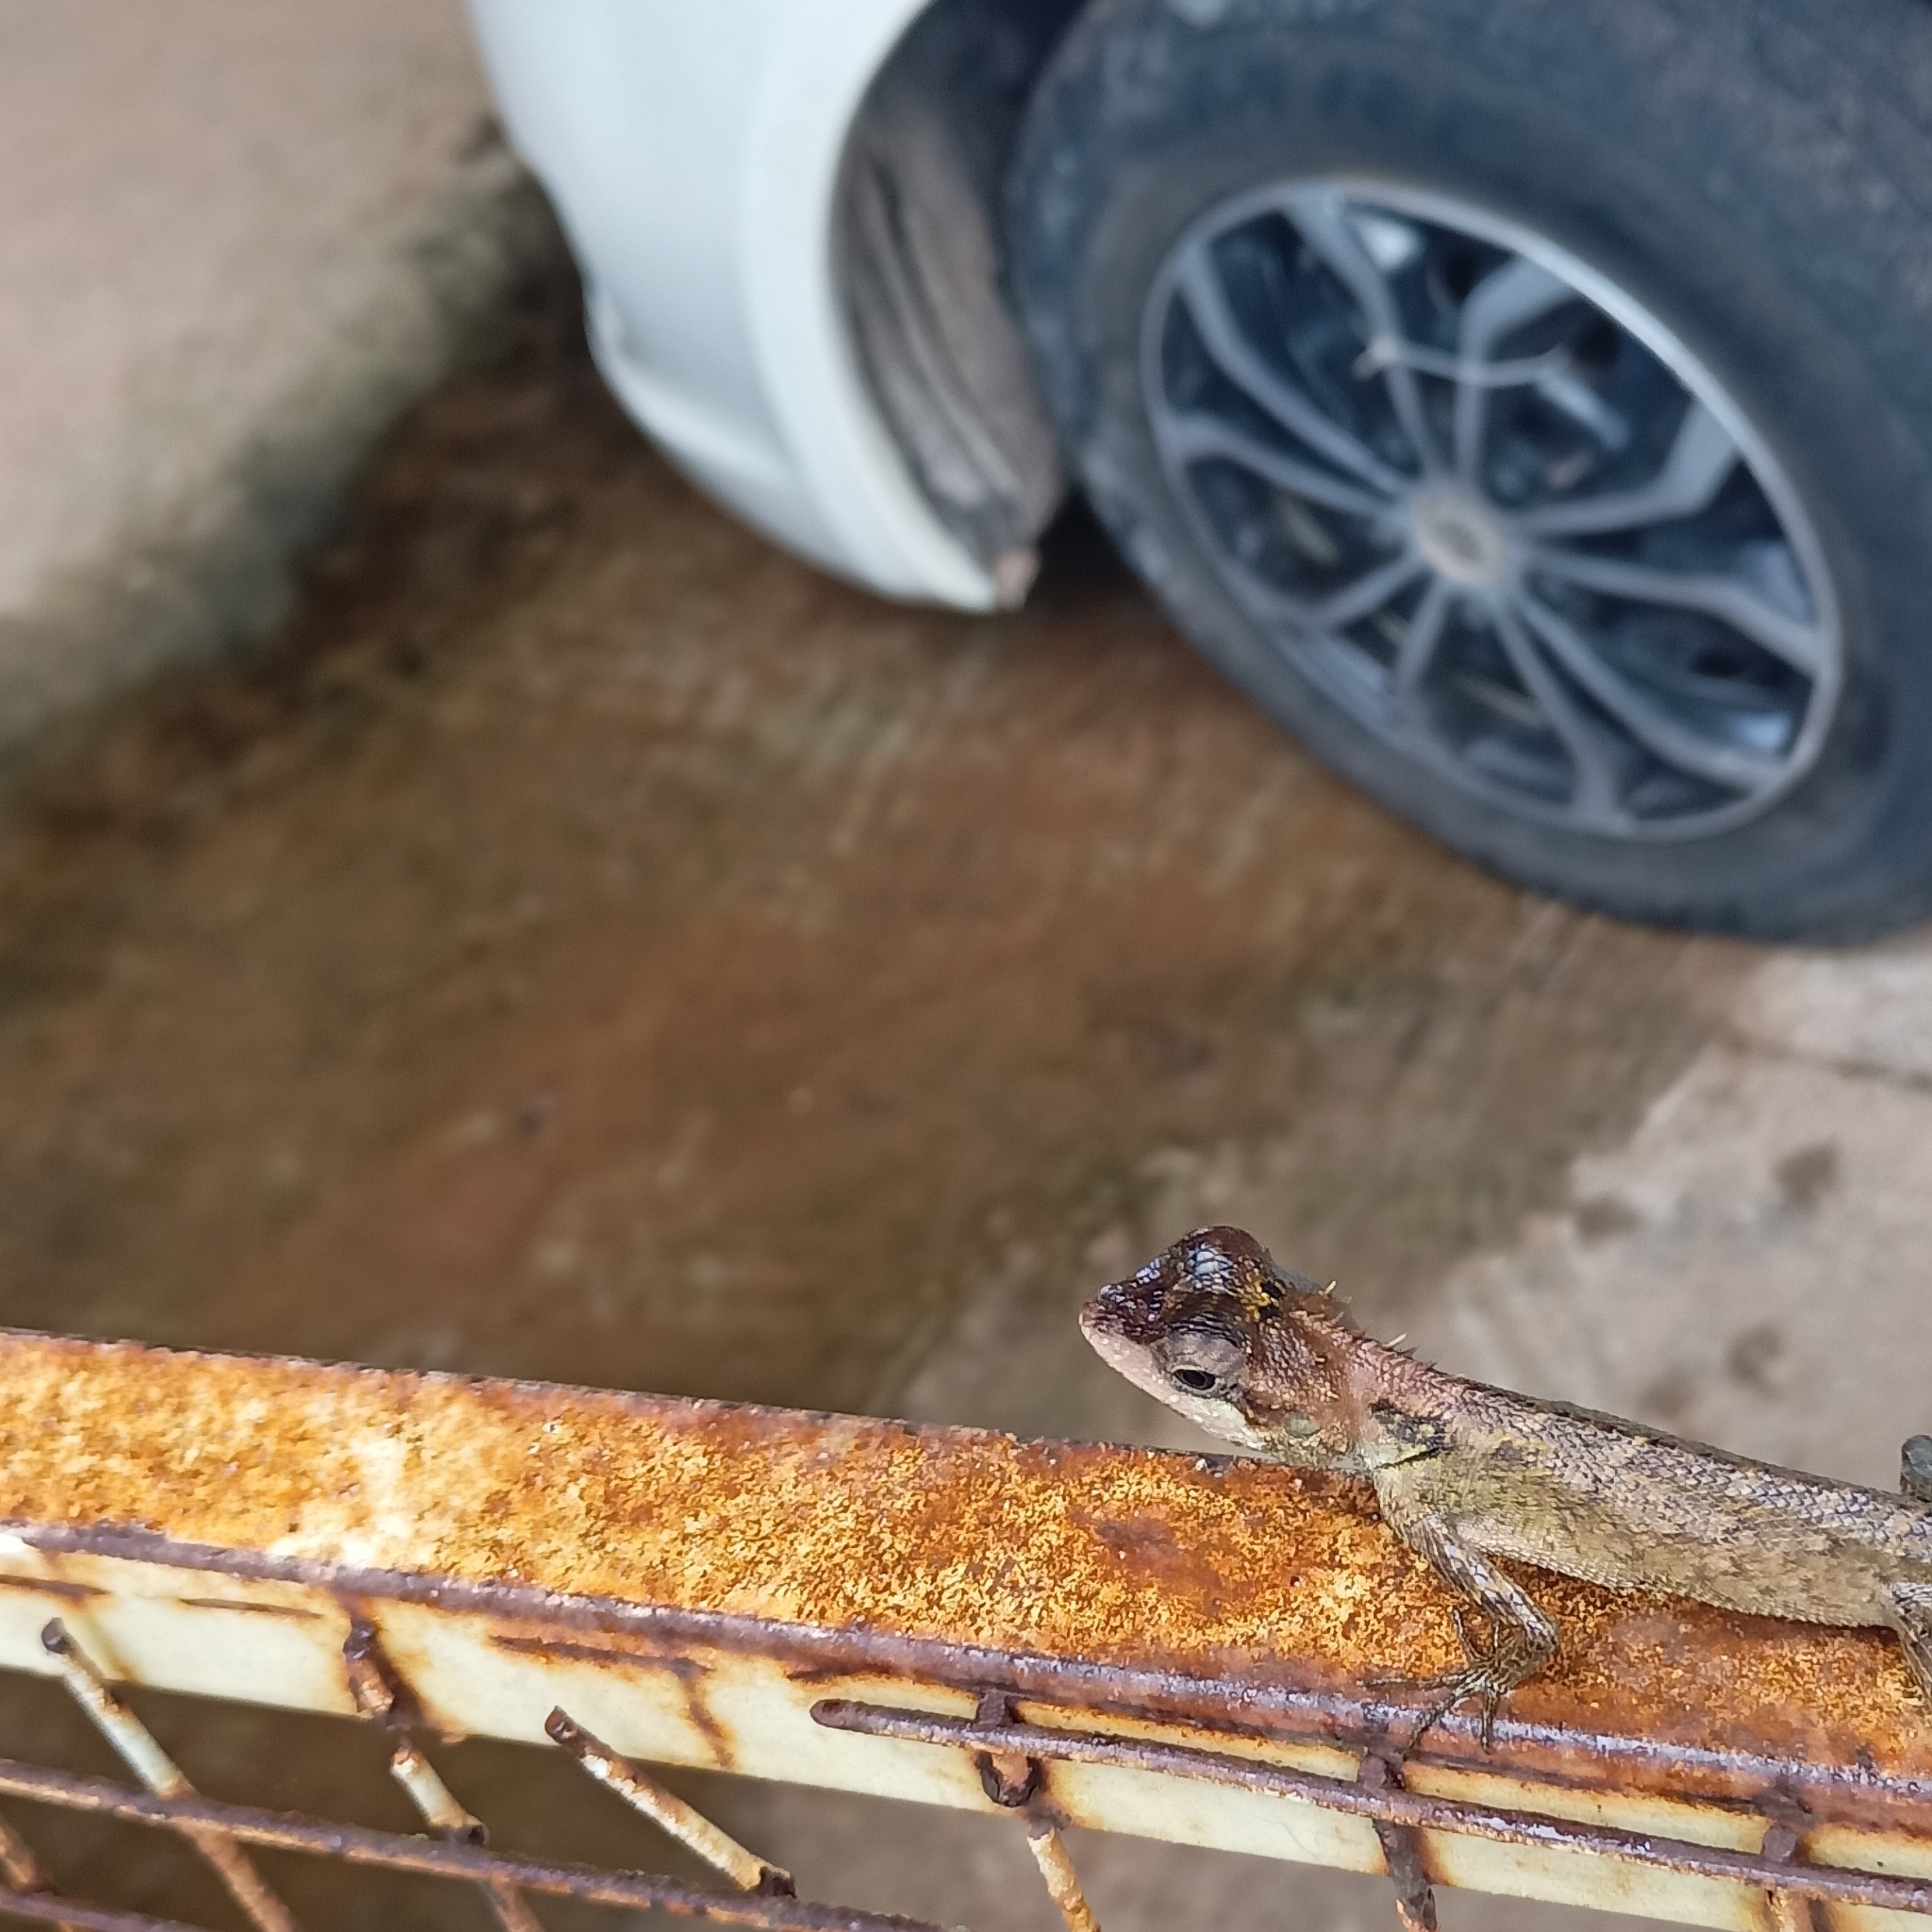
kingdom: Animalia
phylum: Chordata
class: Squamata
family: Agamidae
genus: Monilesaurus
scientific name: Monilesaurus rouxii
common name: Roux's forest lizard
